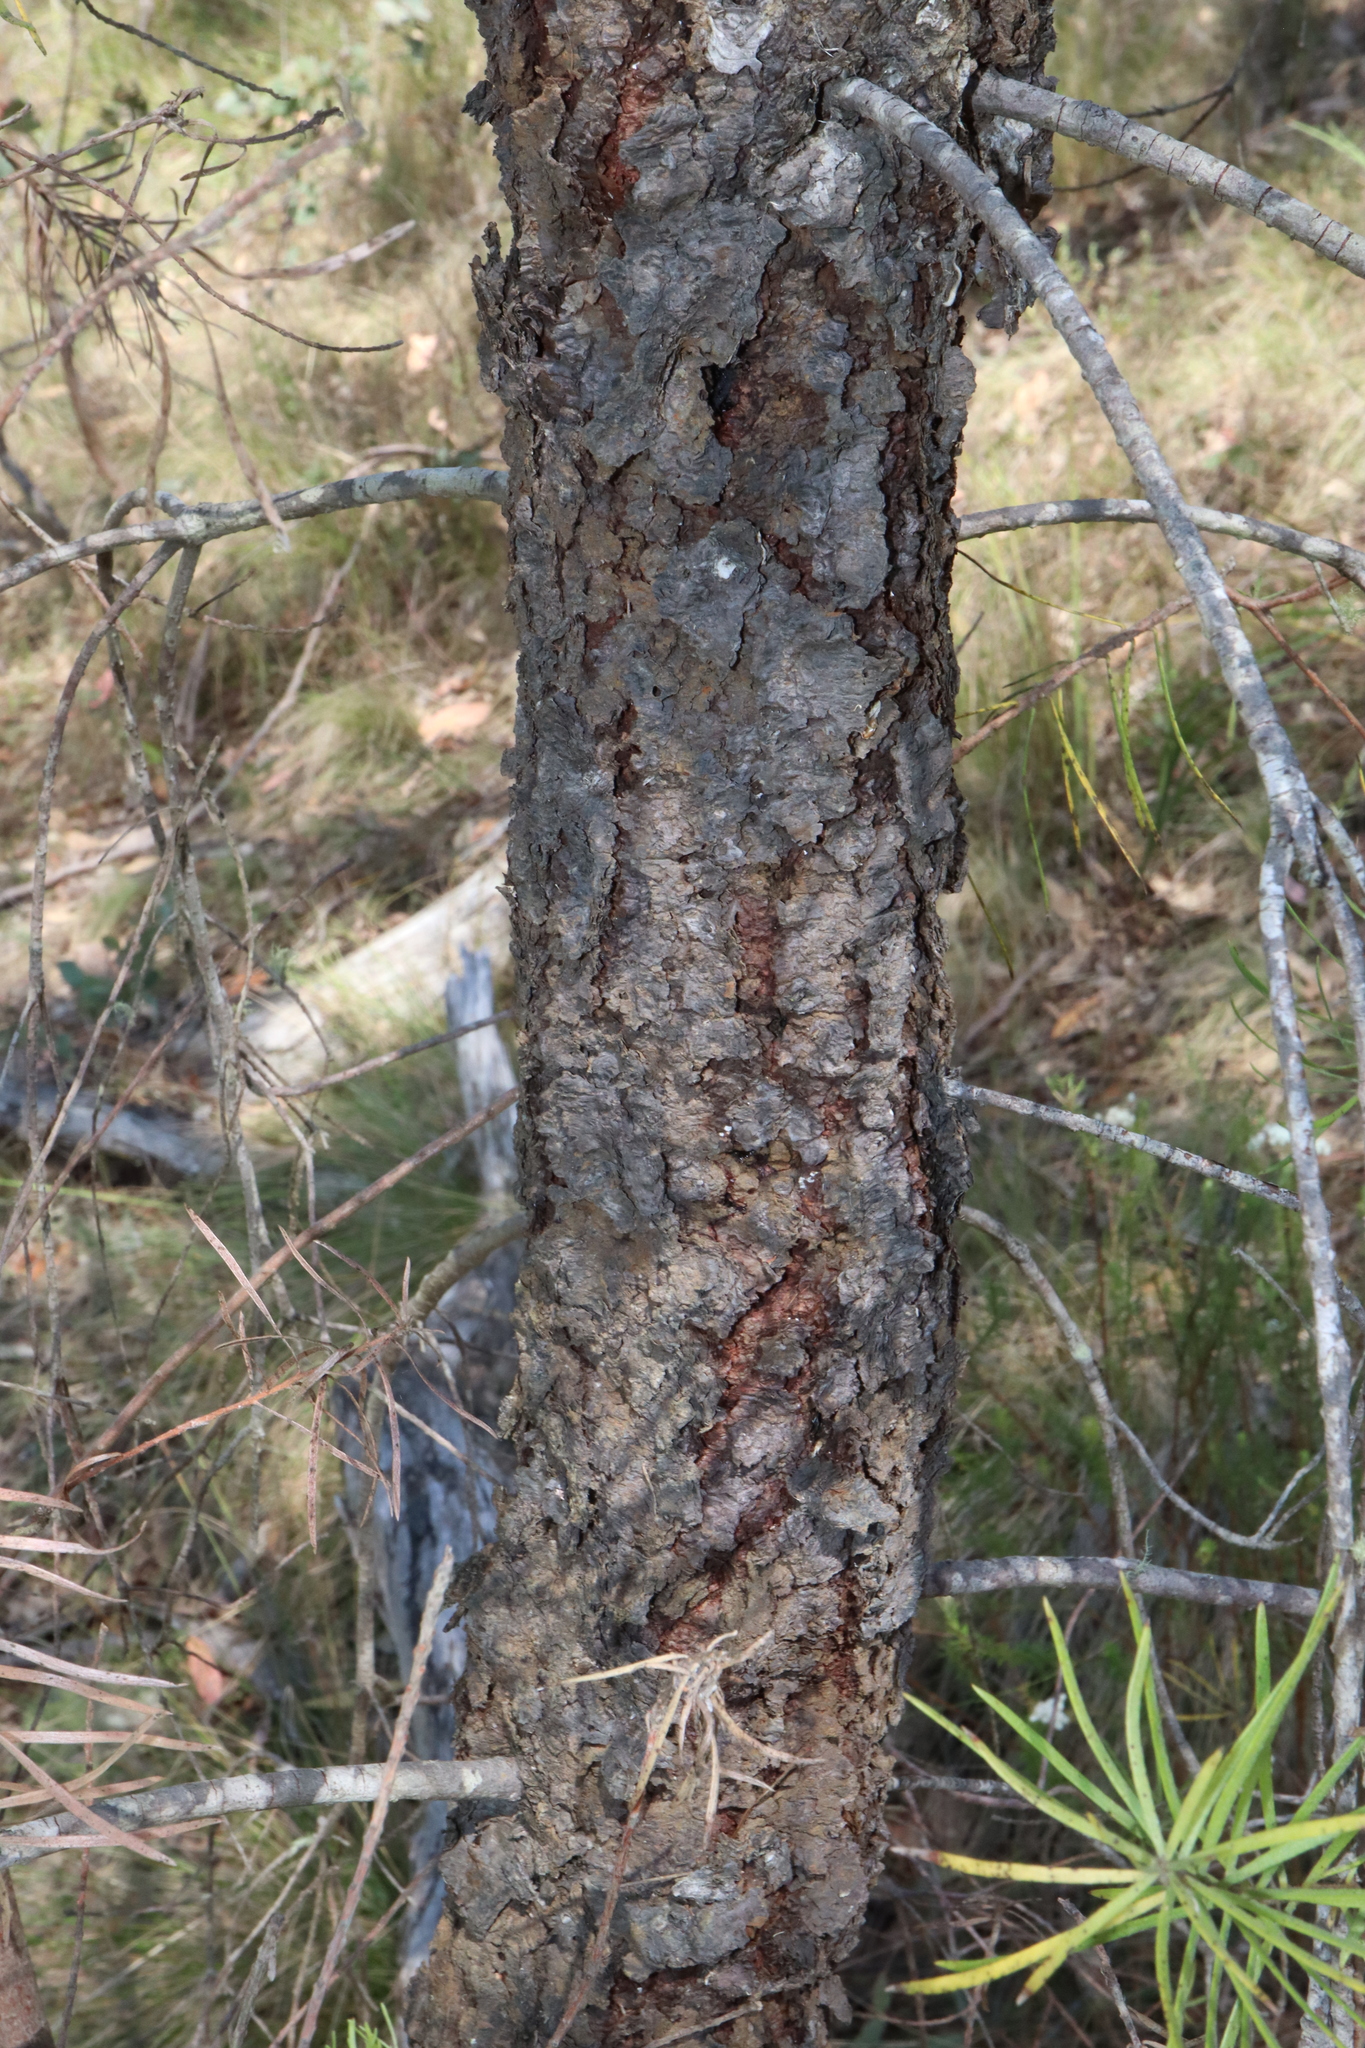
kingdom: Plantae
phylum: Tracheophyta
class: Magnoliopsida
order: Proteales
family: Proteaceae
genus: Persoonia
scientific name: Persoonia linearis
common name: Narrow-leaf geebung
